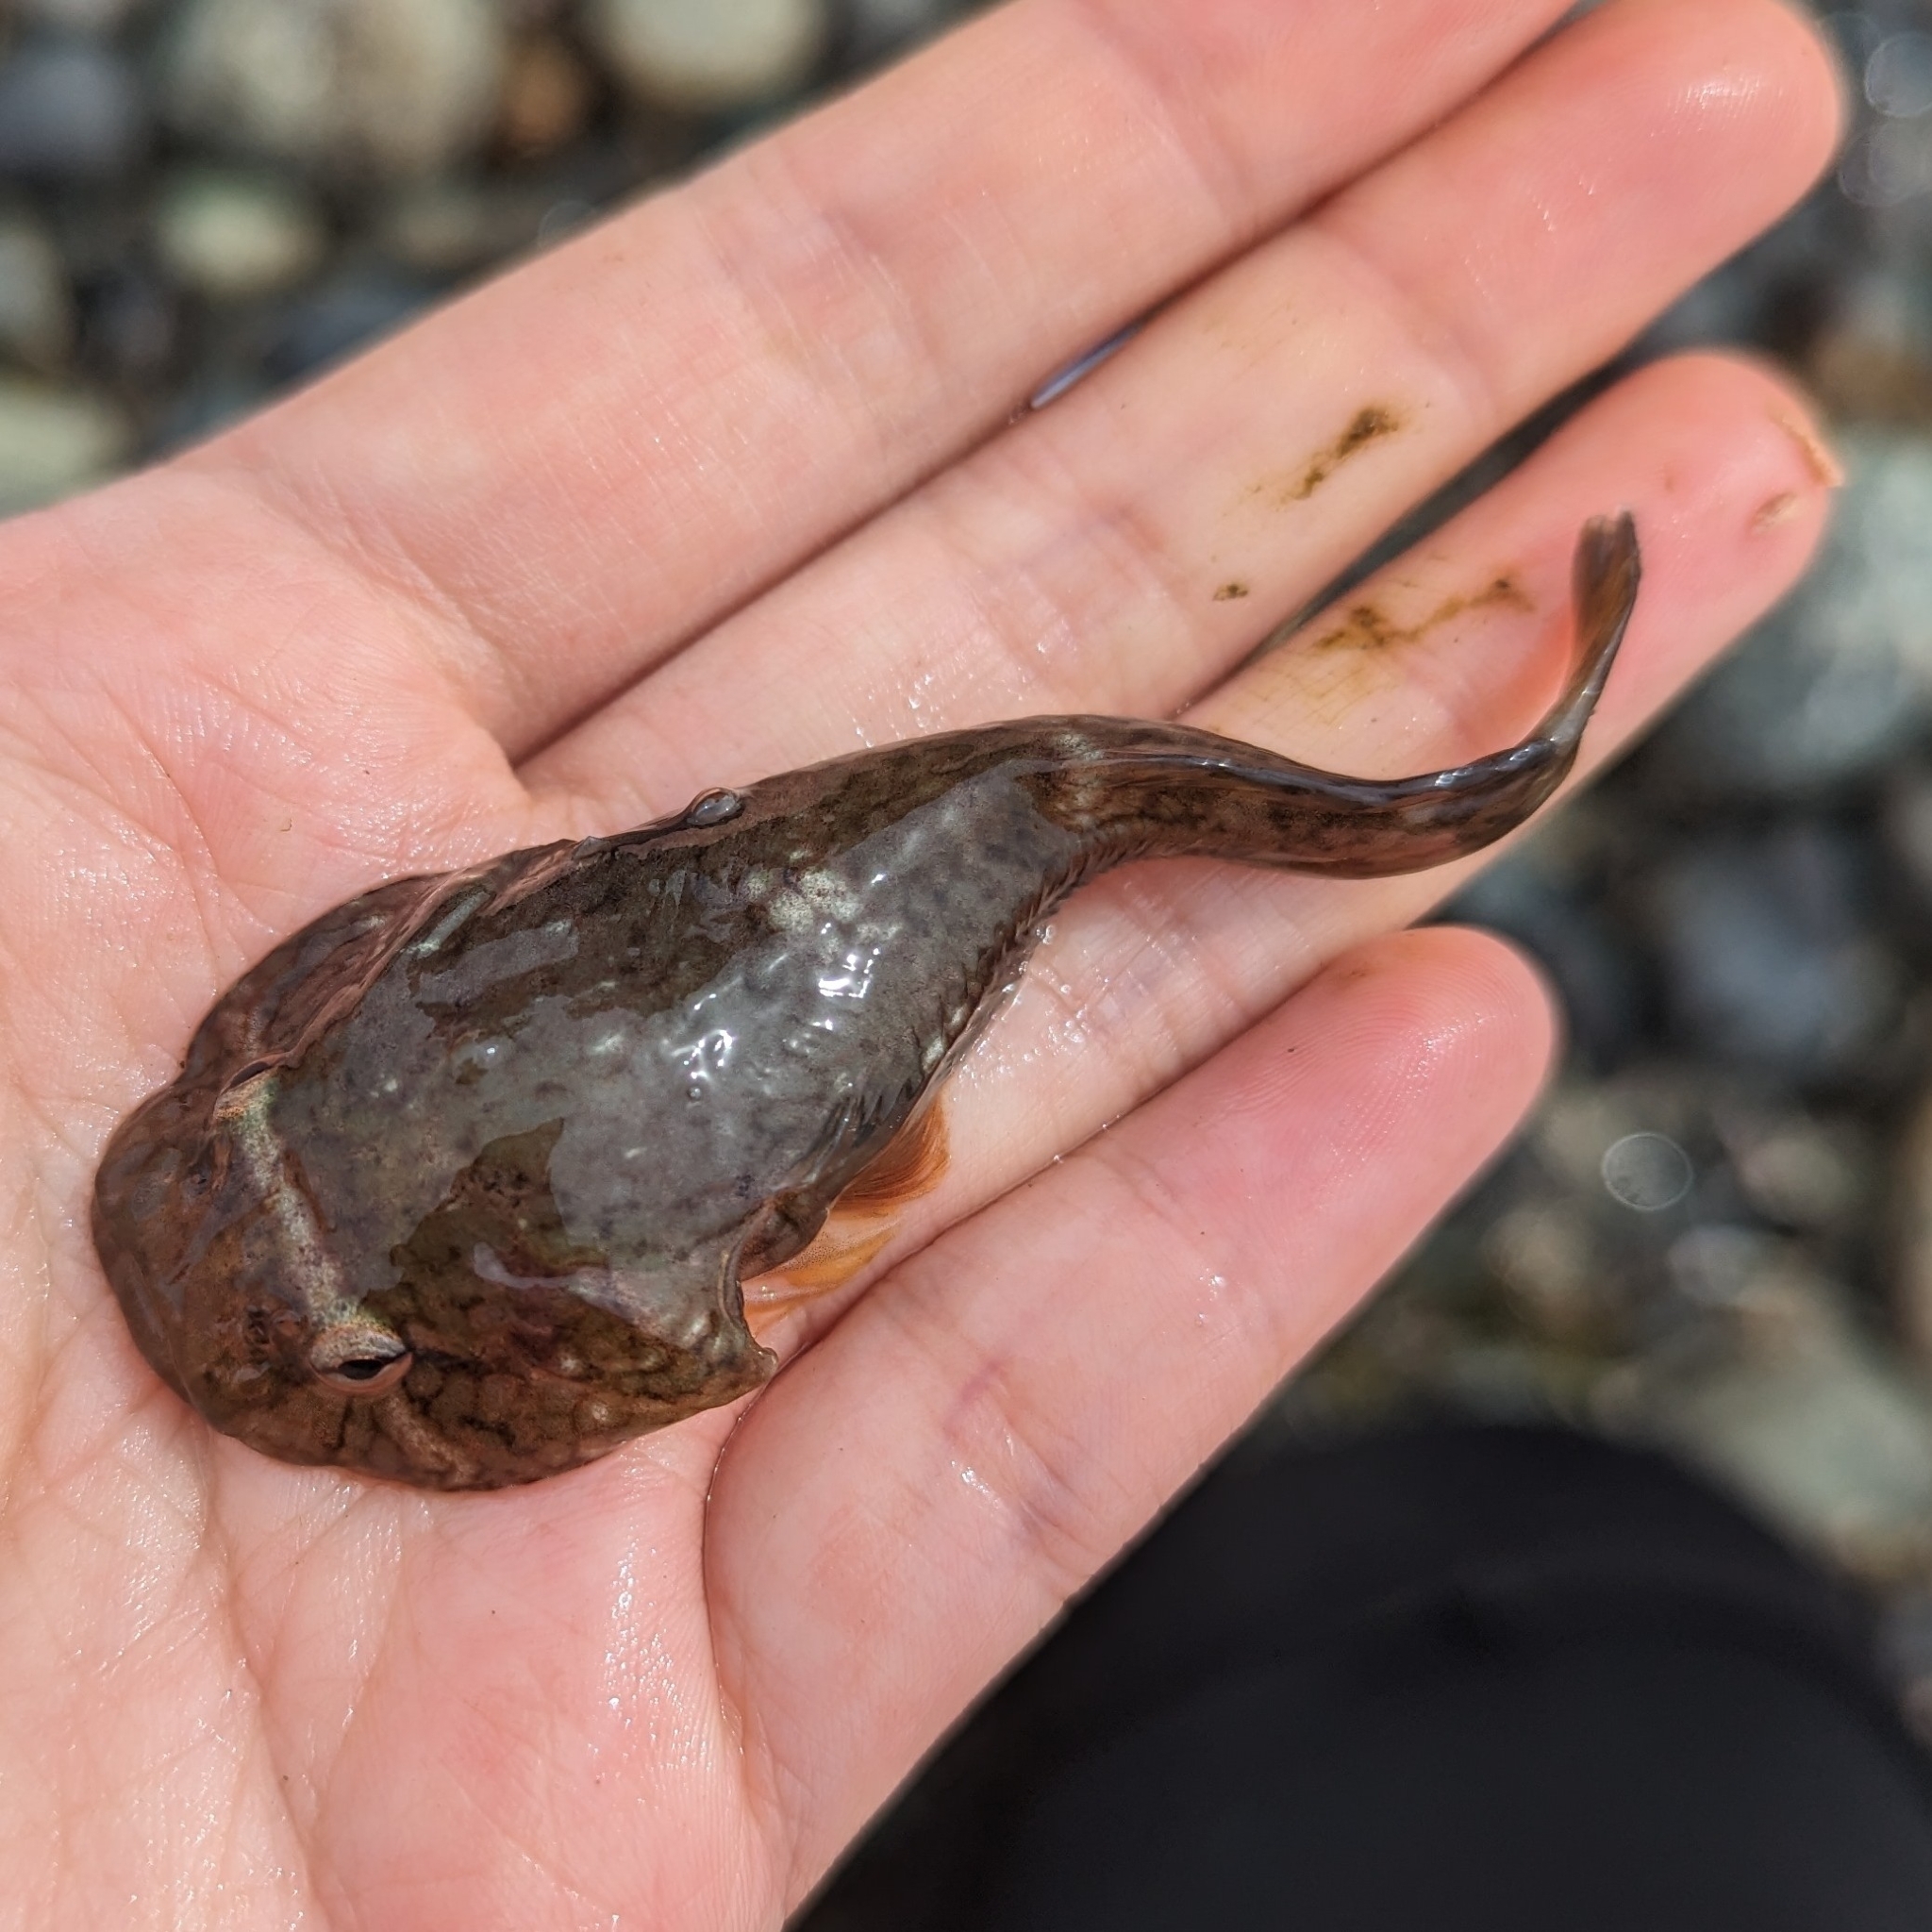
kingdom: Animalia
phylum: Chordata
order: Gobiesociformes
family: Gobiesocidae
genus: Gobiesox
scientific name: Gobiesox maeandricus
